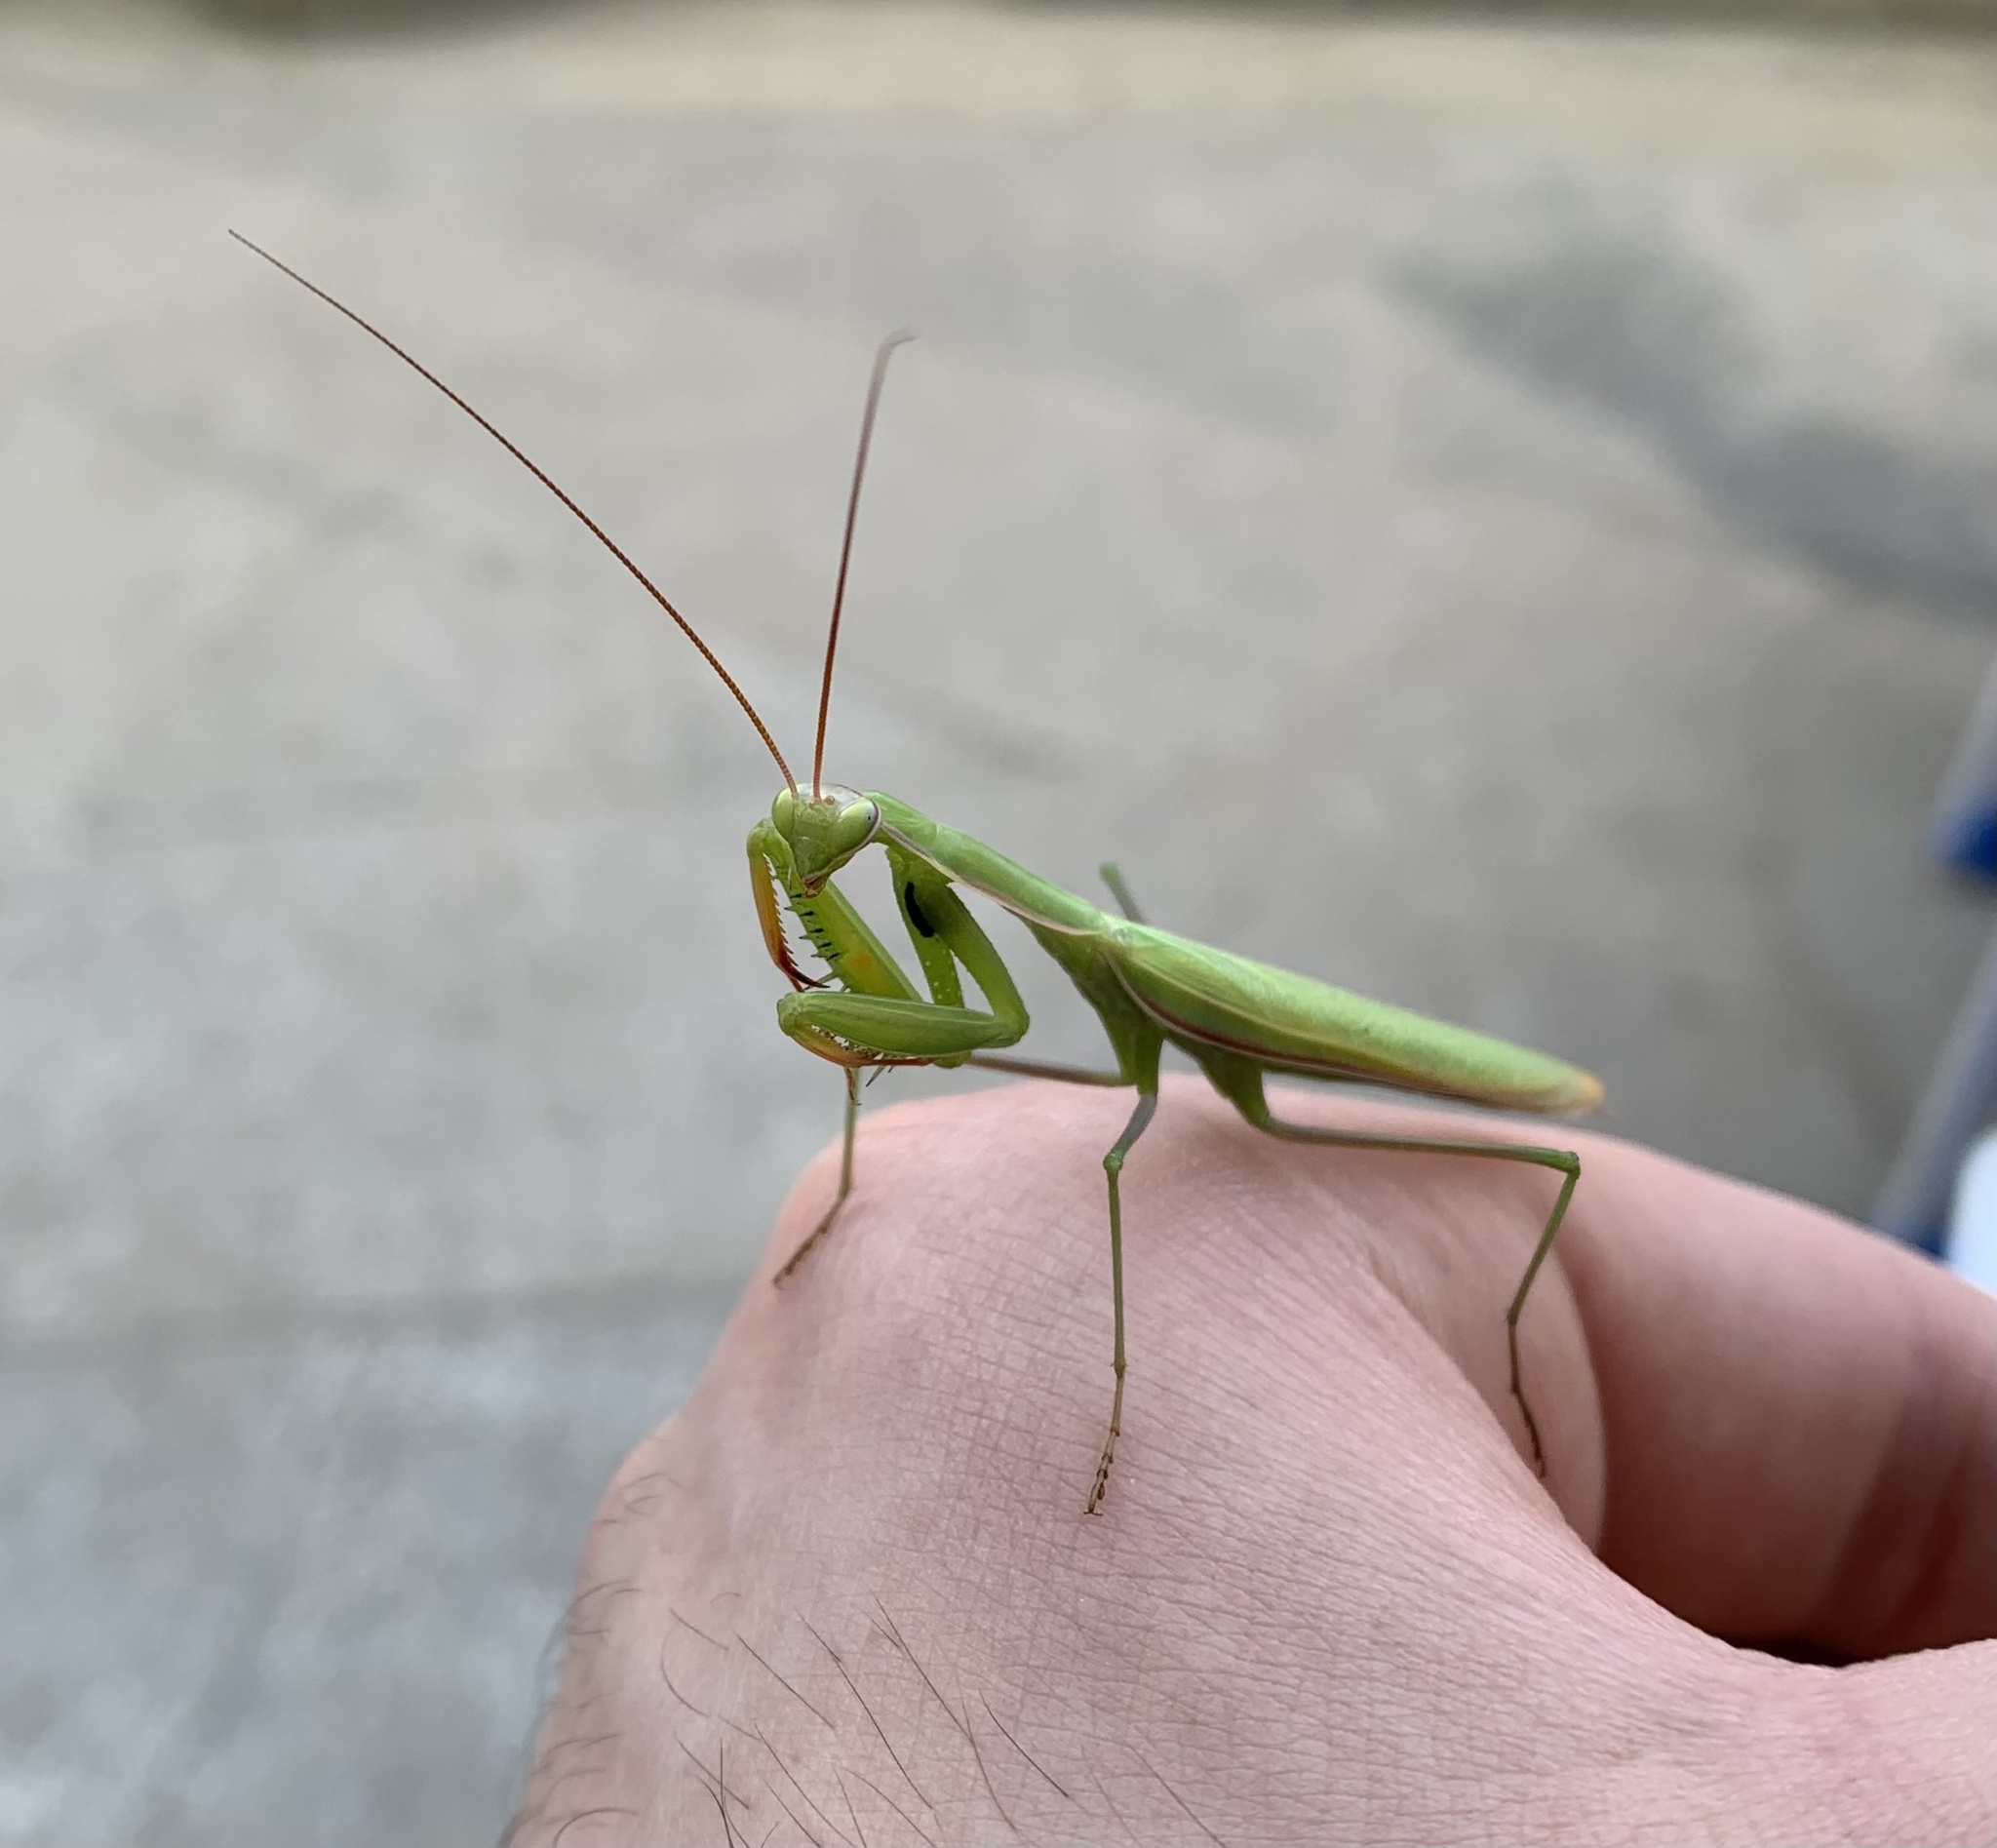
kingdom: Animalia
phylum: Arthropoda
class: Insecta
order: Mantodea
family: Mantidae
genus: Mantis
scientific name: Mantis religiosa
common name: Praying mantis
